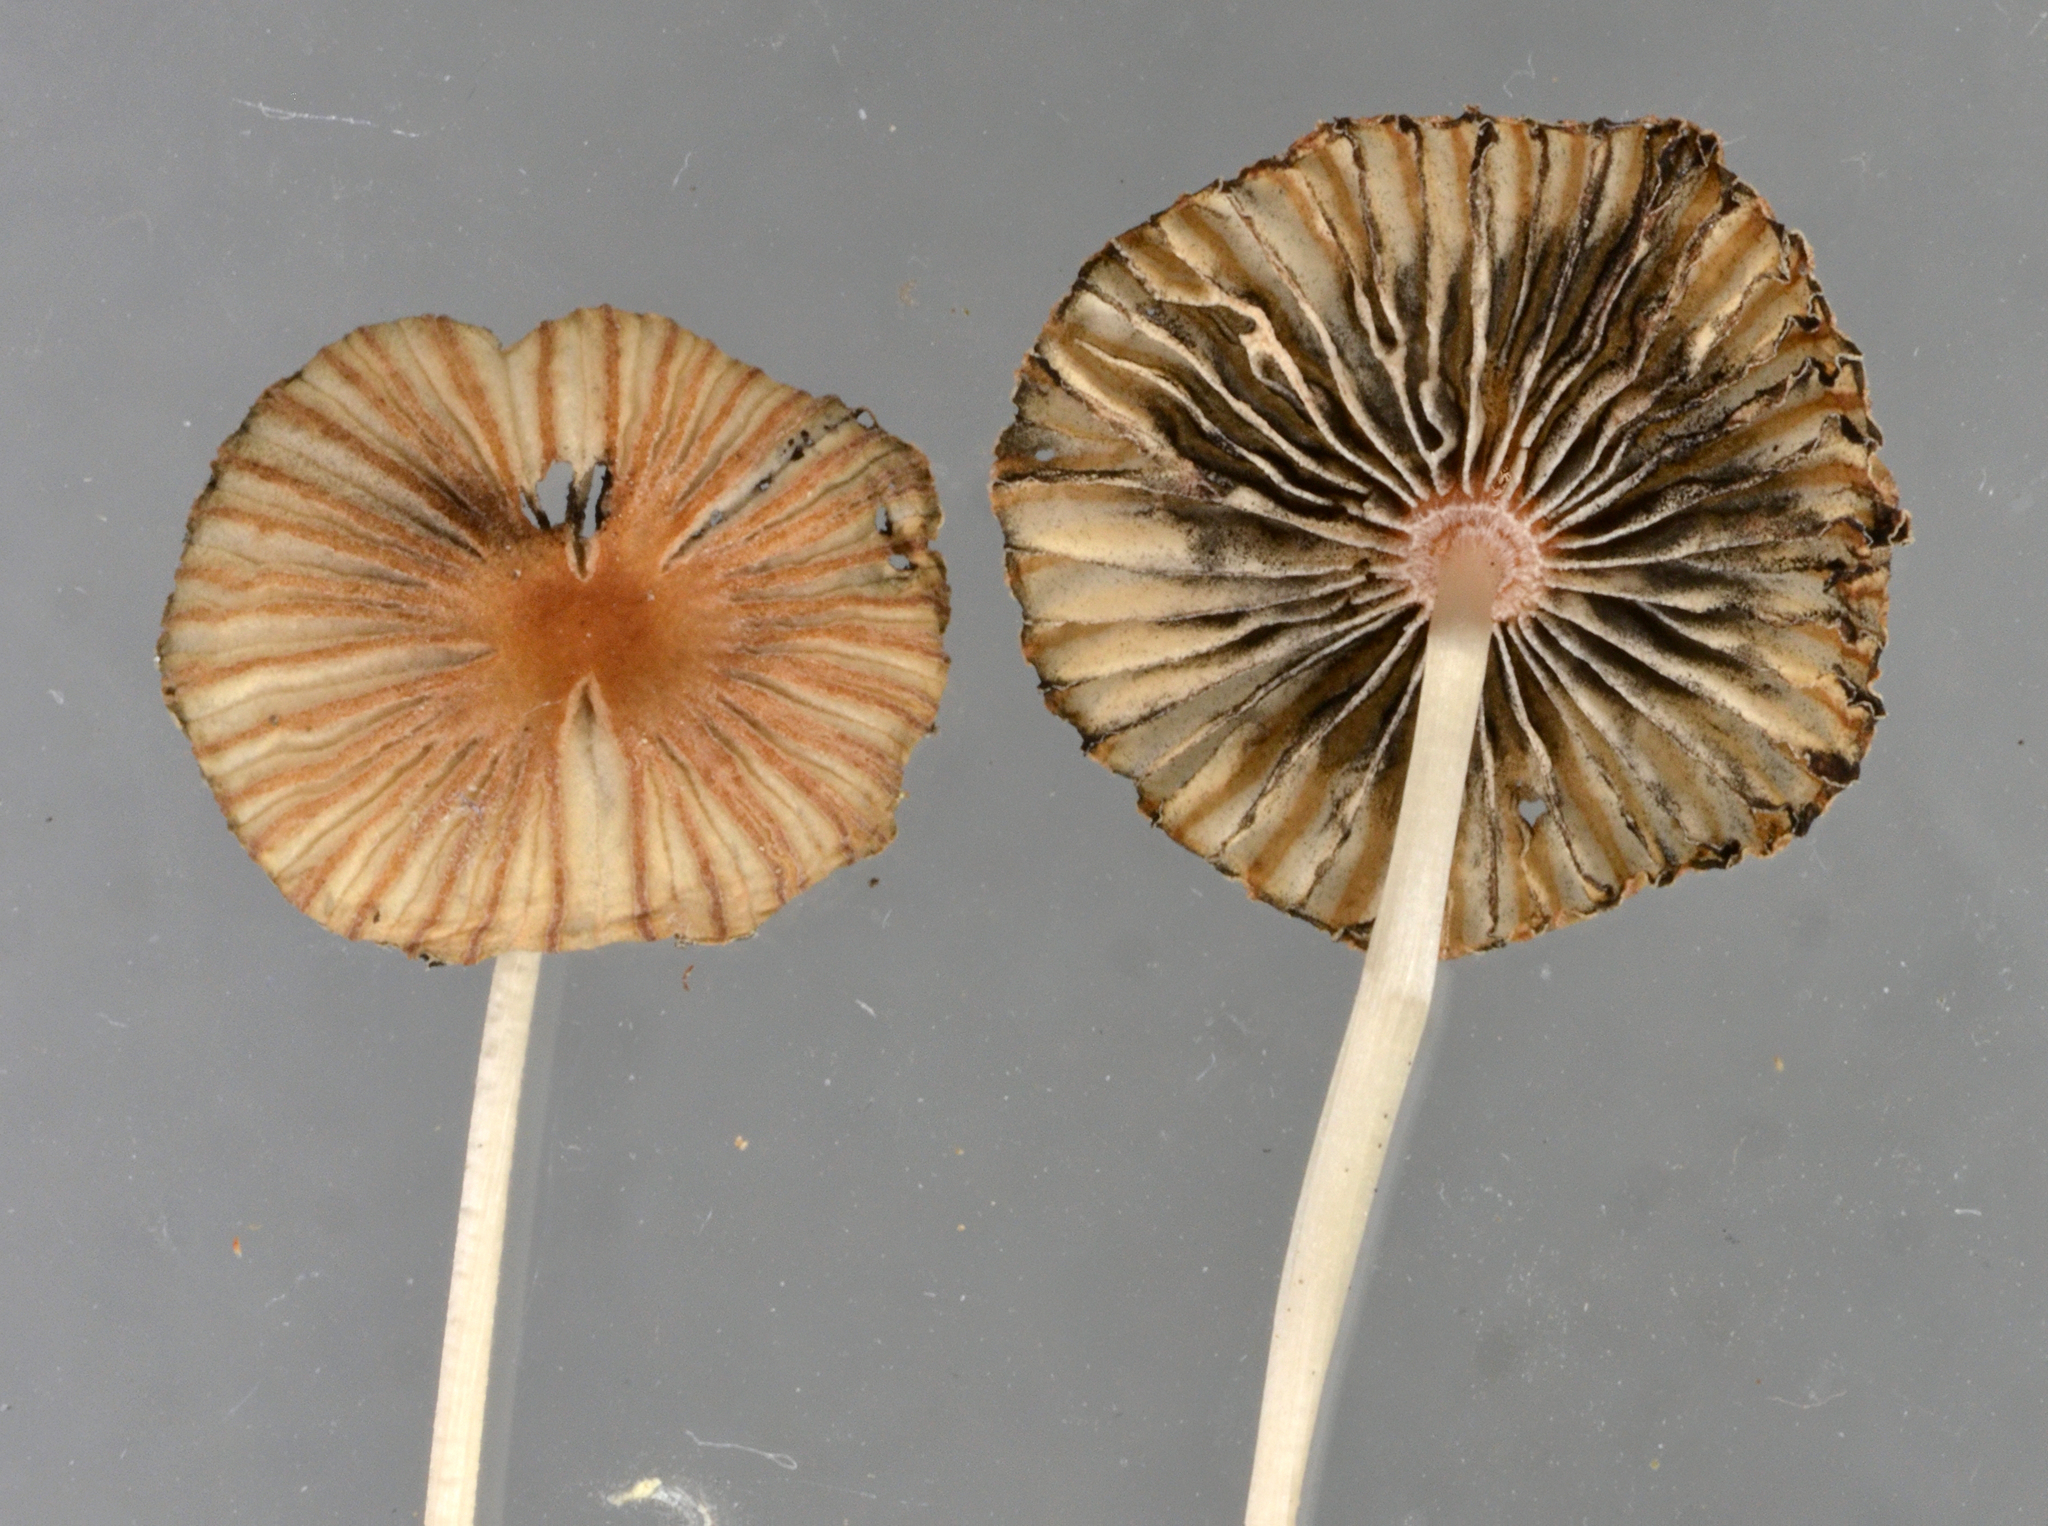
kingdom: Fungi
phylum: Basidiomycota
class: Agaricomycetes
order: Agaricales
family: Psathyrellaceae
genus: Parasola
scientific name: Parasola hercules
